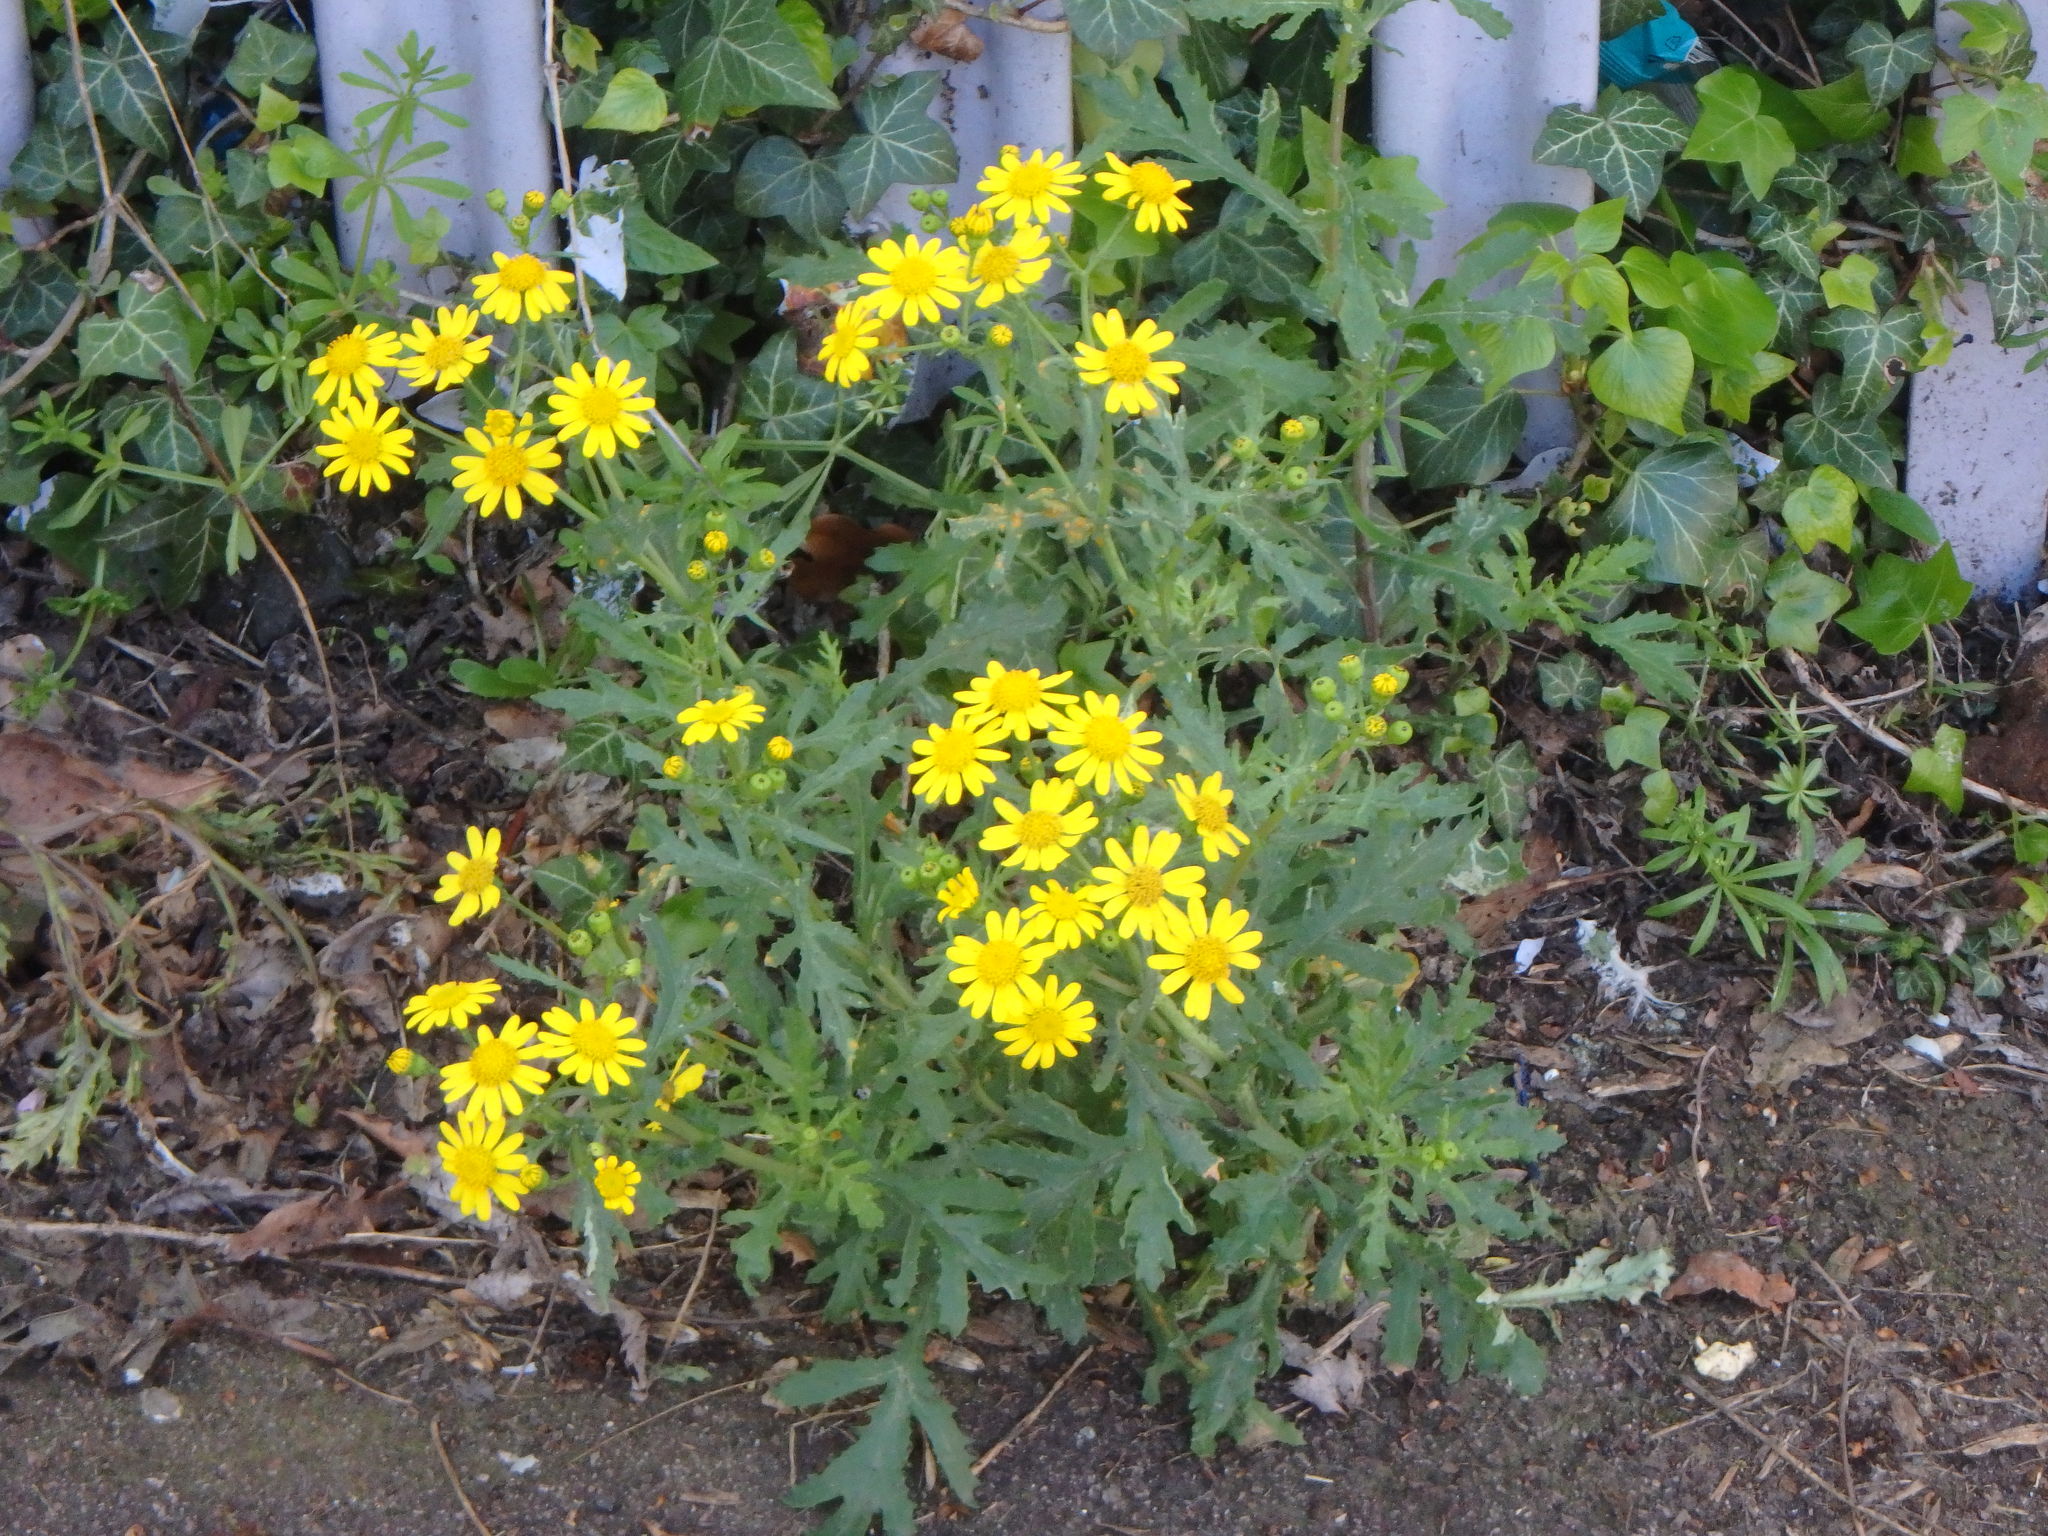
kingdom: Plantae
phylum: Tracheophyta
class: Magnoliopsida
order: Asterales
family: Asteraceae
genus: Senecio
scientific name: Senecio squalidus
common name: Oxford ragwort
